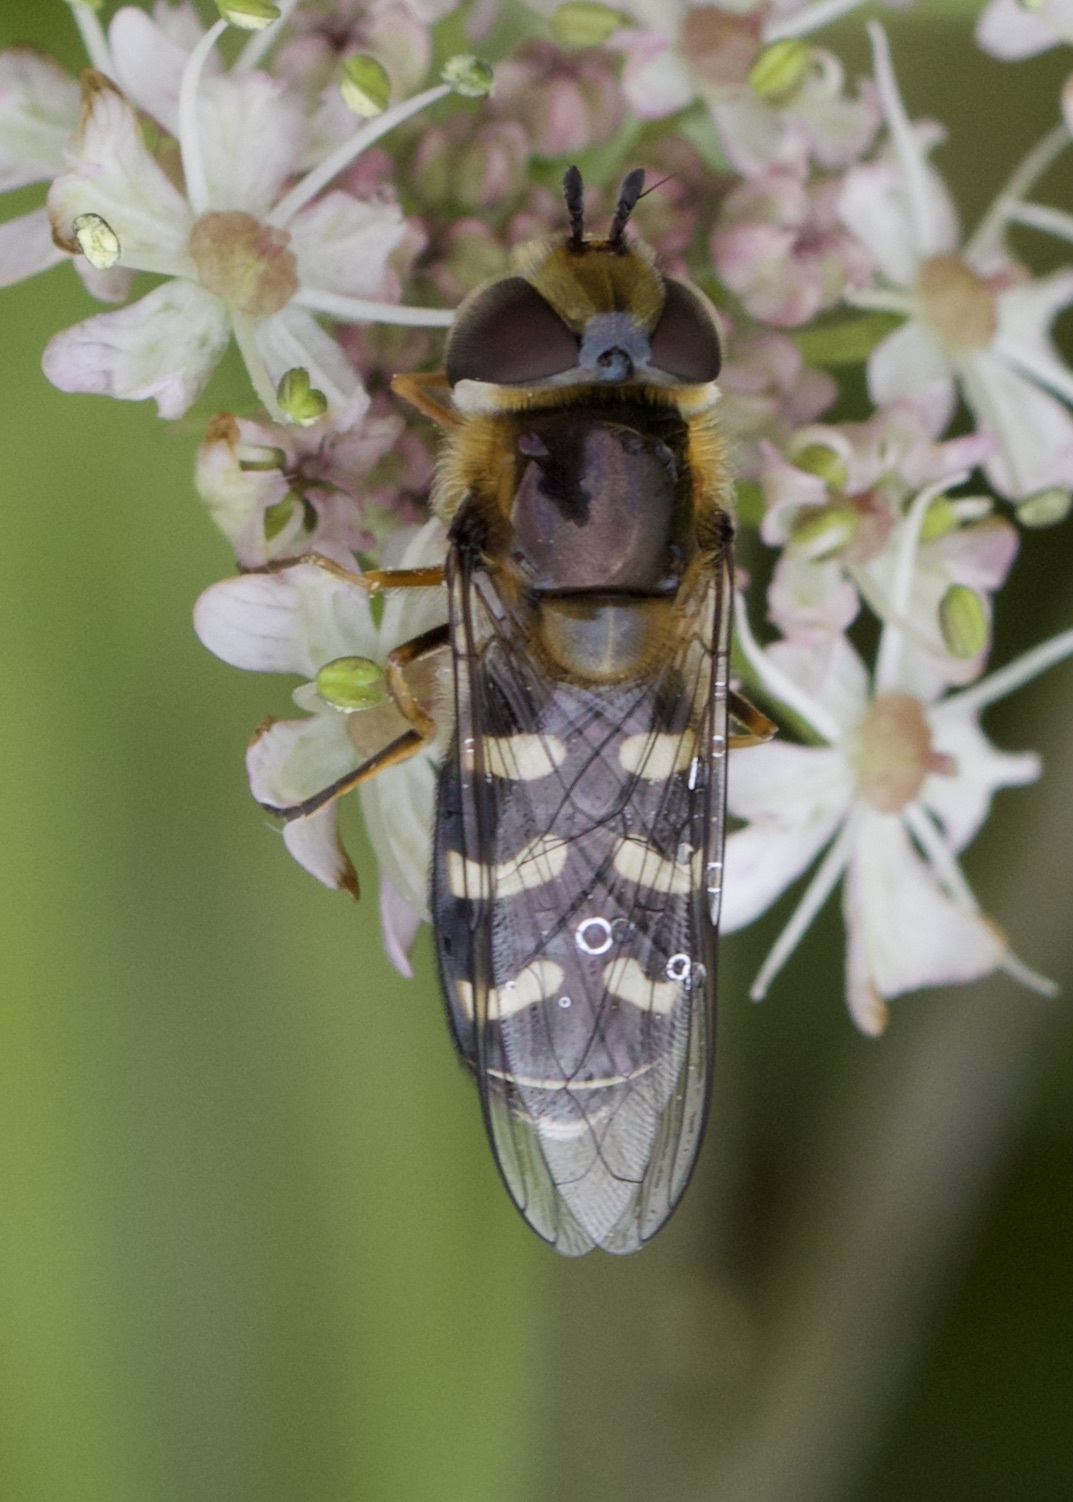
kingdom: Animalia
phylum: Arthropoda
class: Insecta
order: Diptera
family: Syrphidae
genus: Scaeva
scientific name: Scaeva pyrastri
